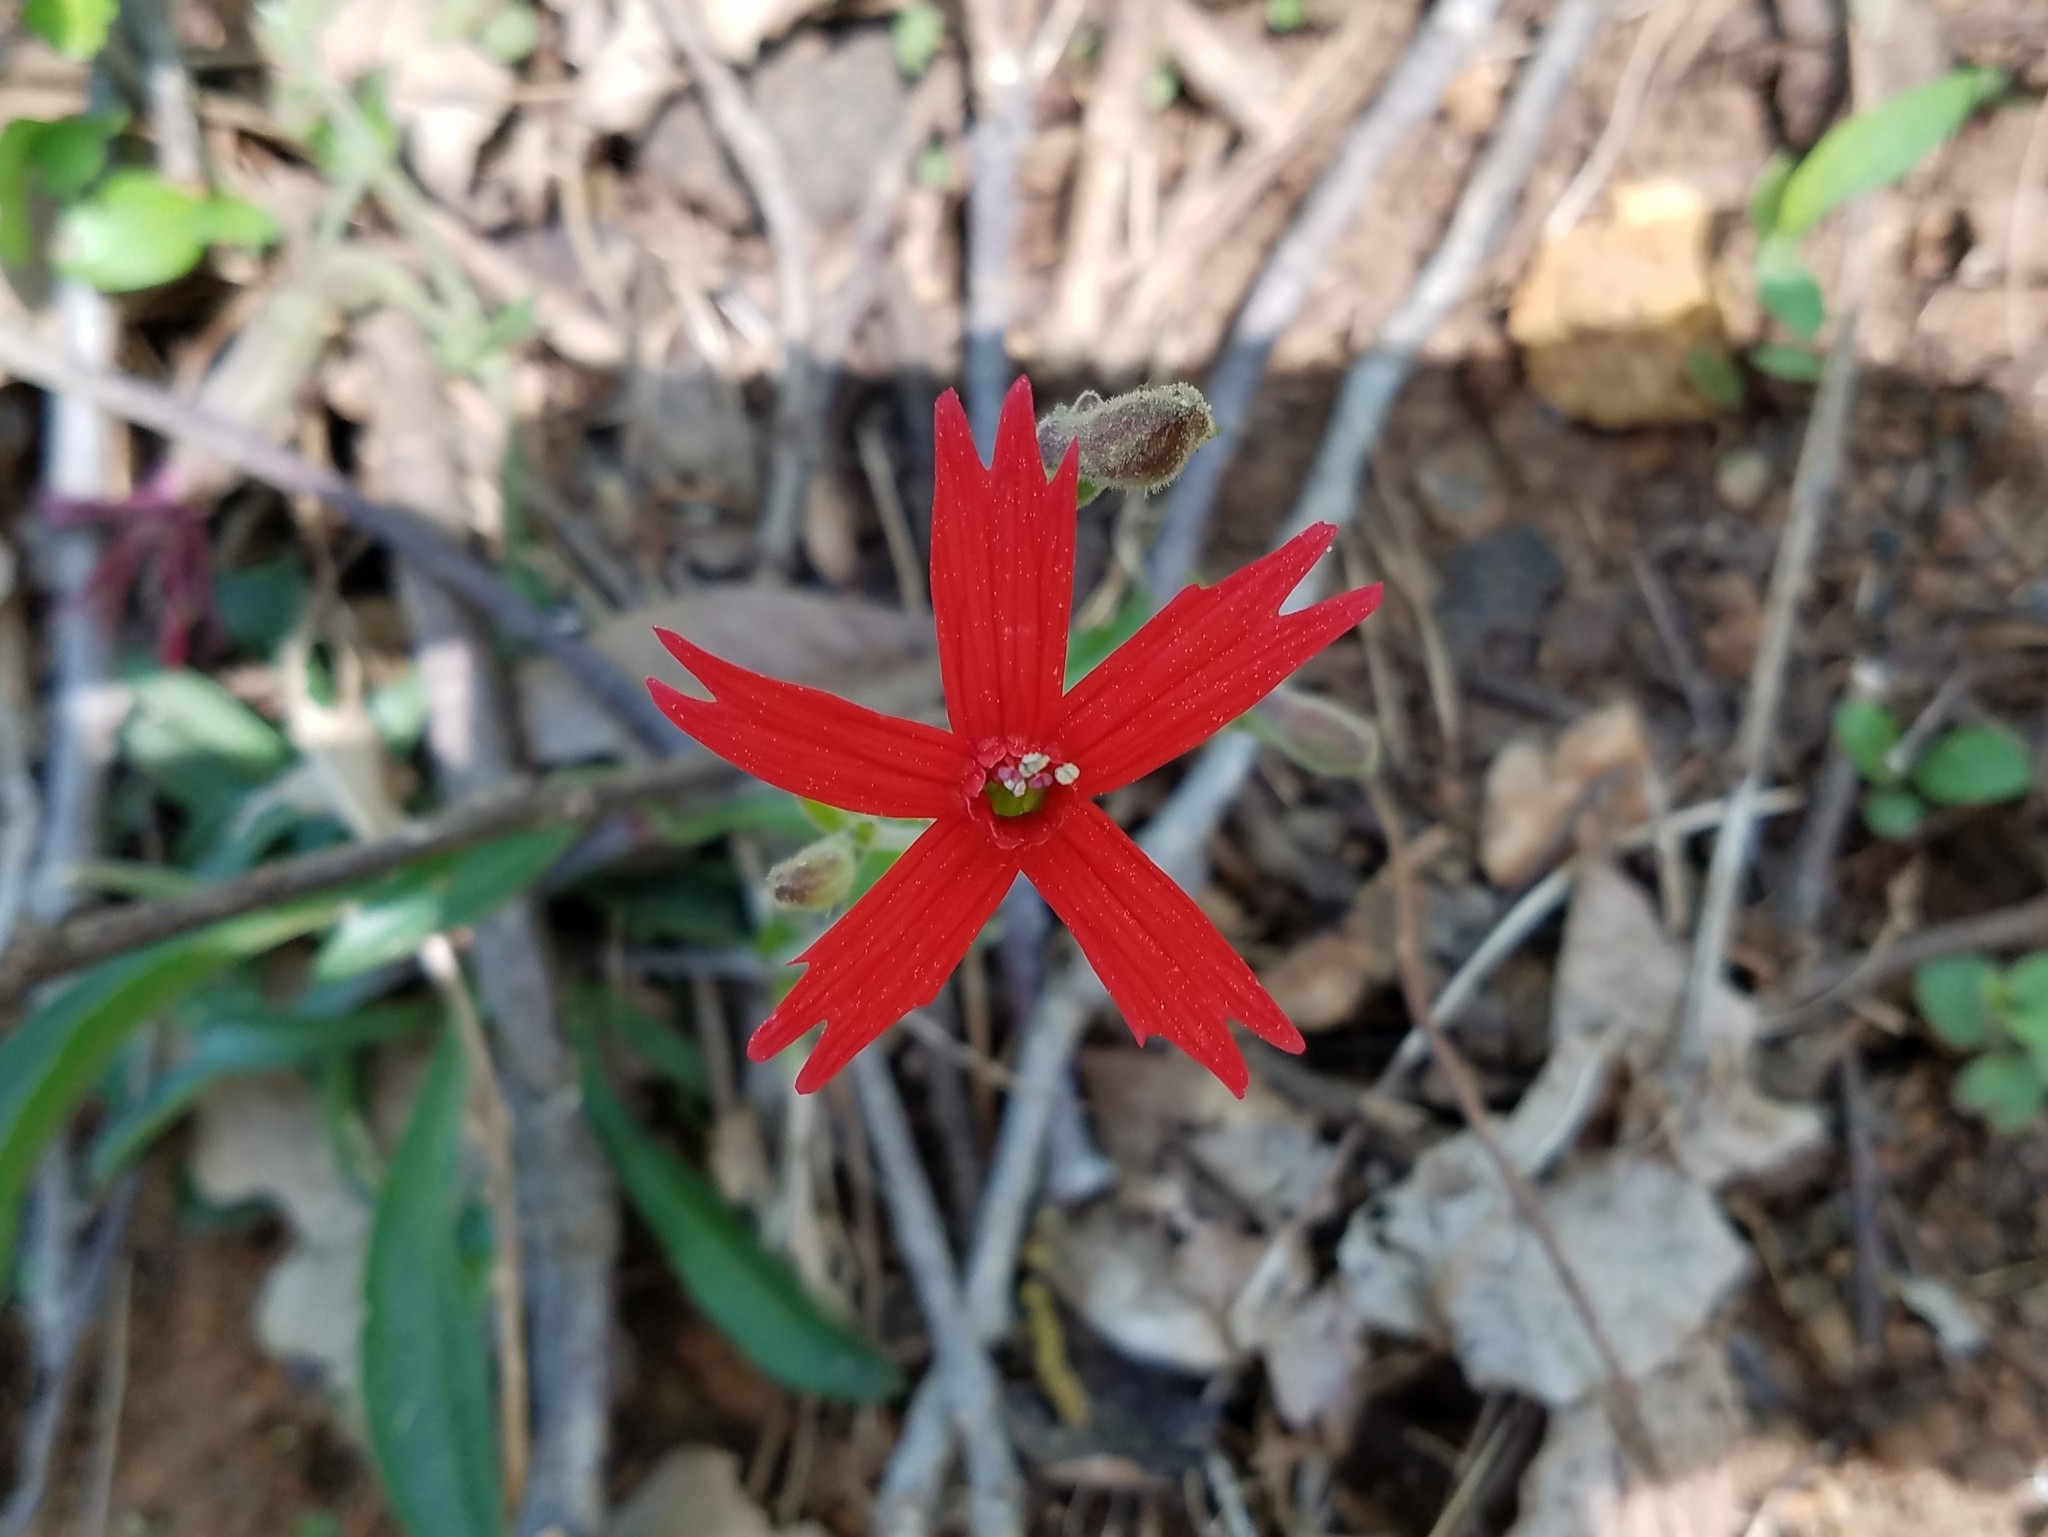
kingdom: Plantae
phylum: Tracheophyta
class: Magnoliopsida
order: Caryophyllales
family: Caryophyllaceae
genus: Silene
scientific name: Silene virginica
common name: Fire-pink
